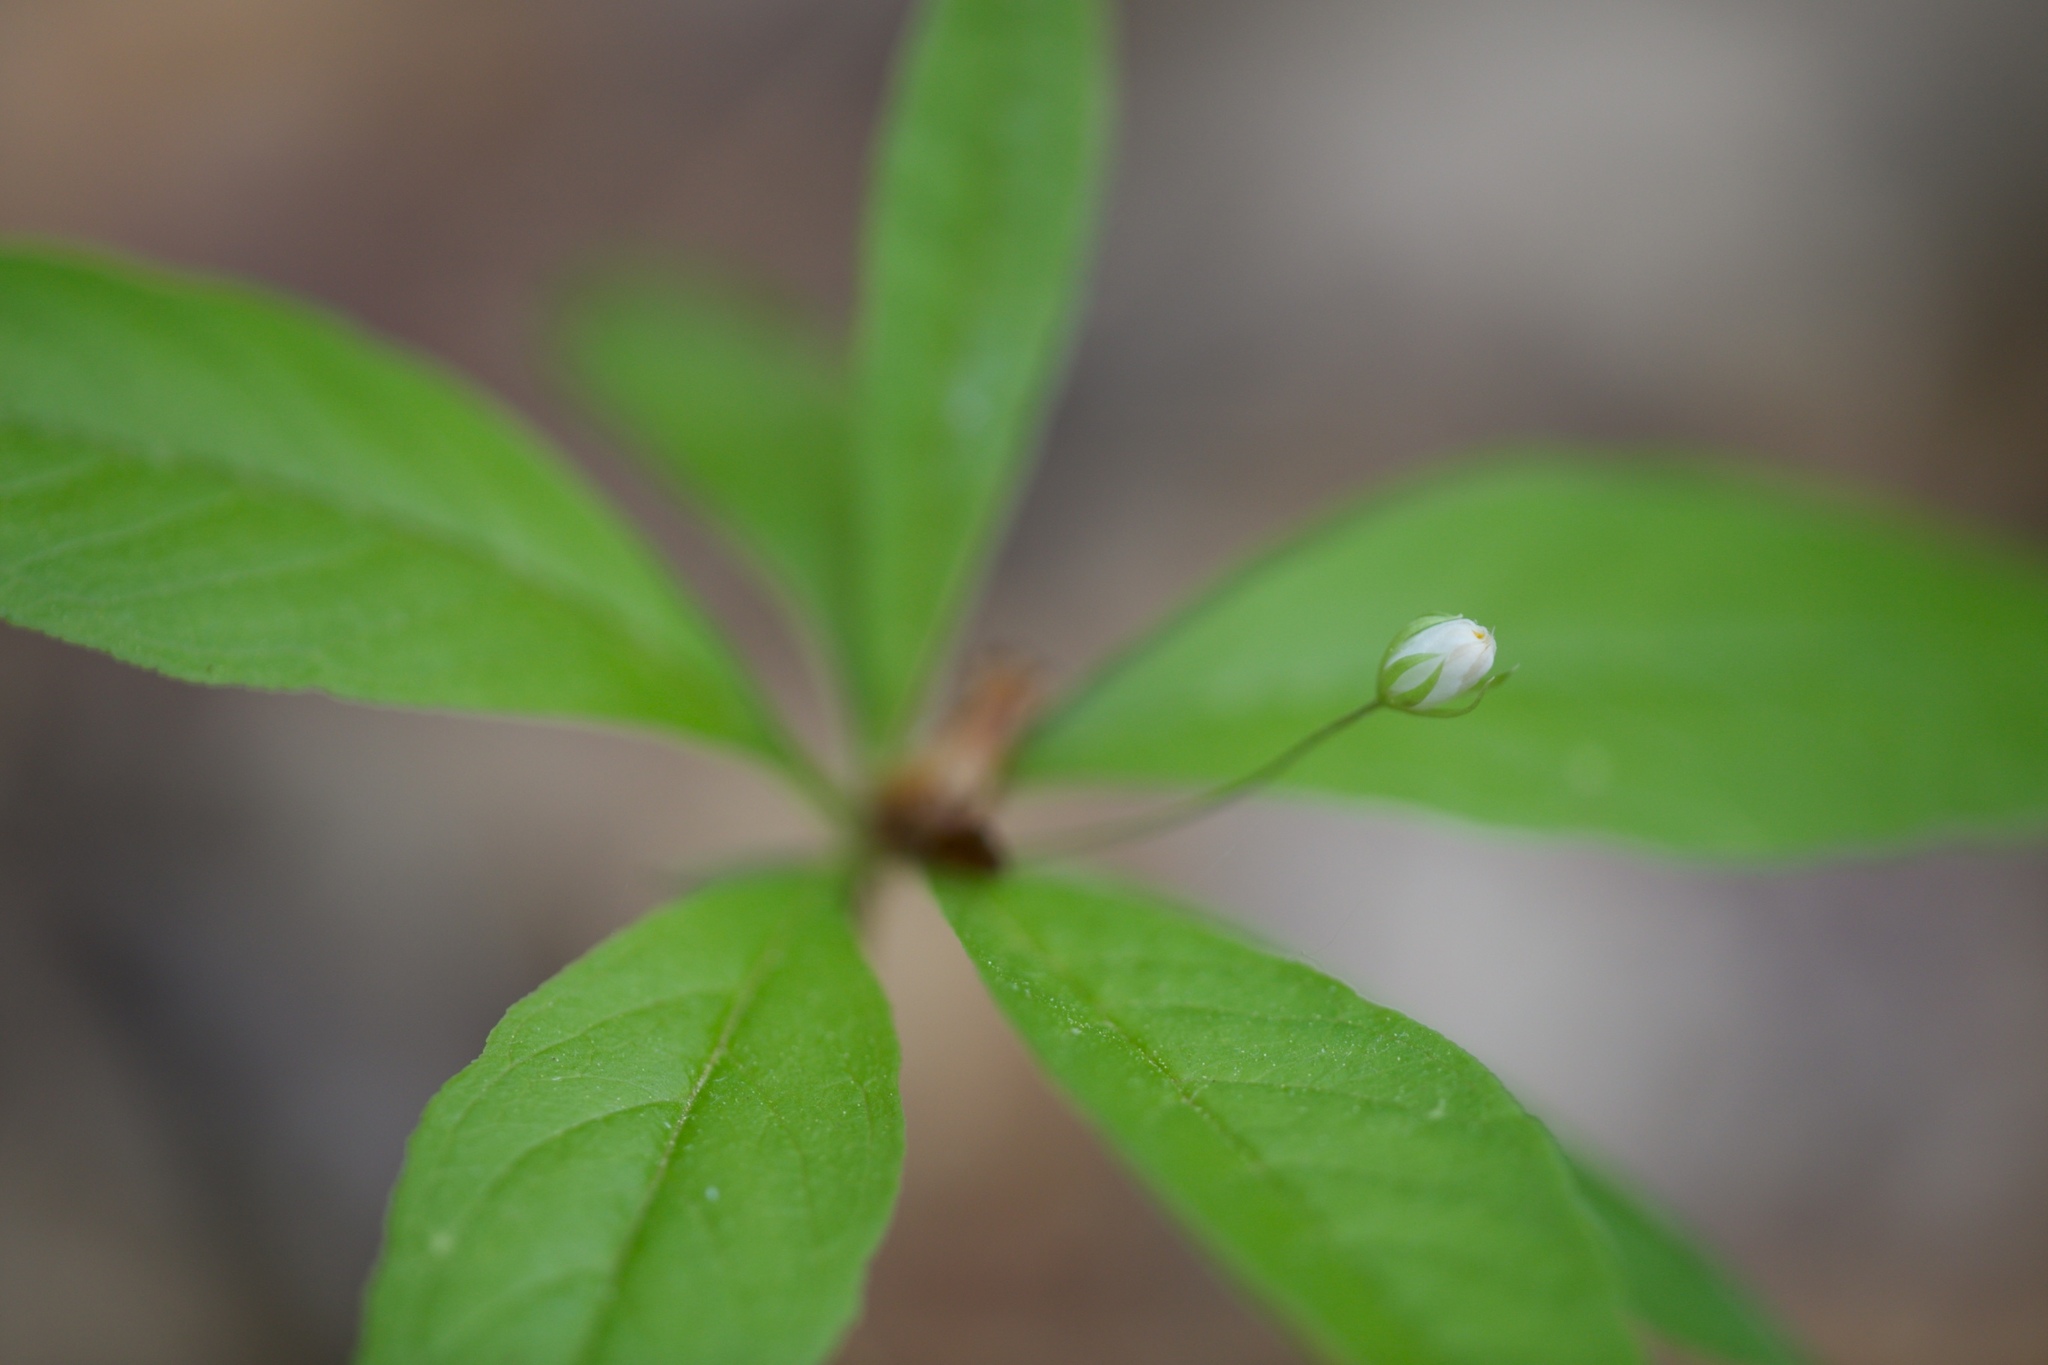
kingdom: Plantae
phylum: Tracheophyta
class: Magnoliopsida
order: Ericales
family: Primulaceae
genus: Lysimachia
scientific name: Lysimachia borealis
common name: American starflower
